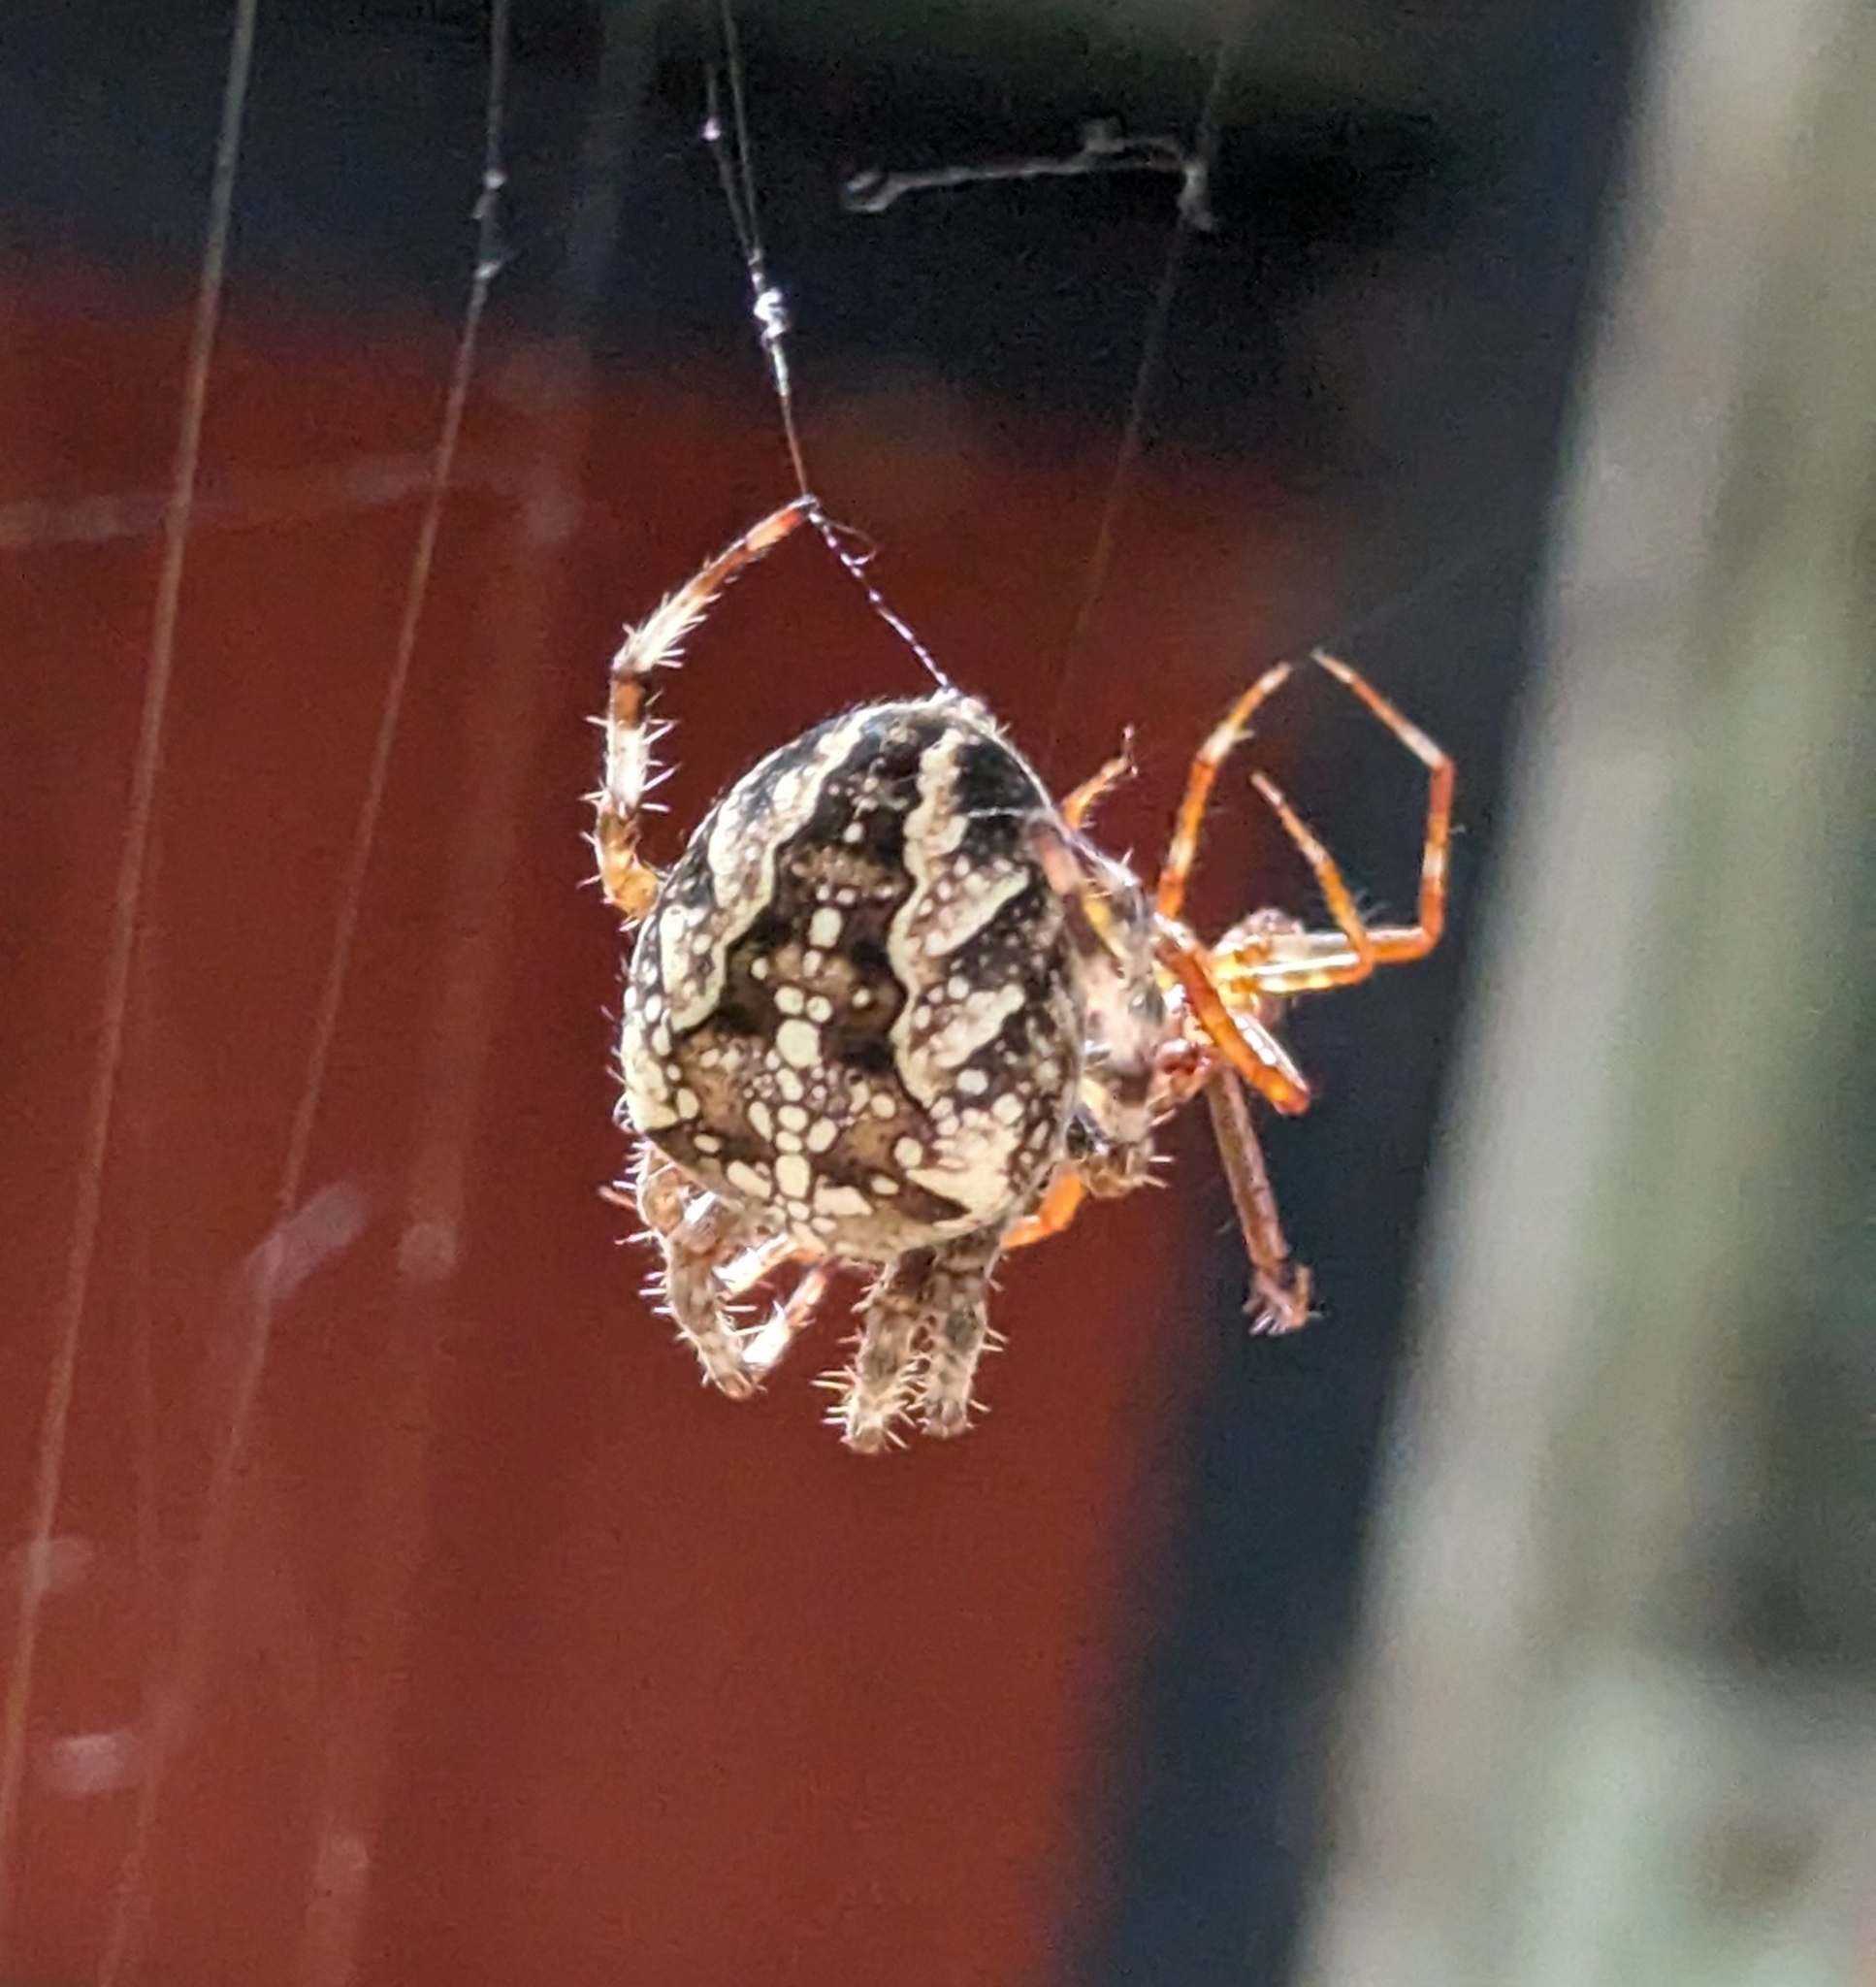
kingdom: Animalia
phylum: Arthropoda
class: Arachnida
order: Araneae
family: Araneidae
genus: Araneus
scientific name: Araneus diadematus
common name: Cross orbweaver
